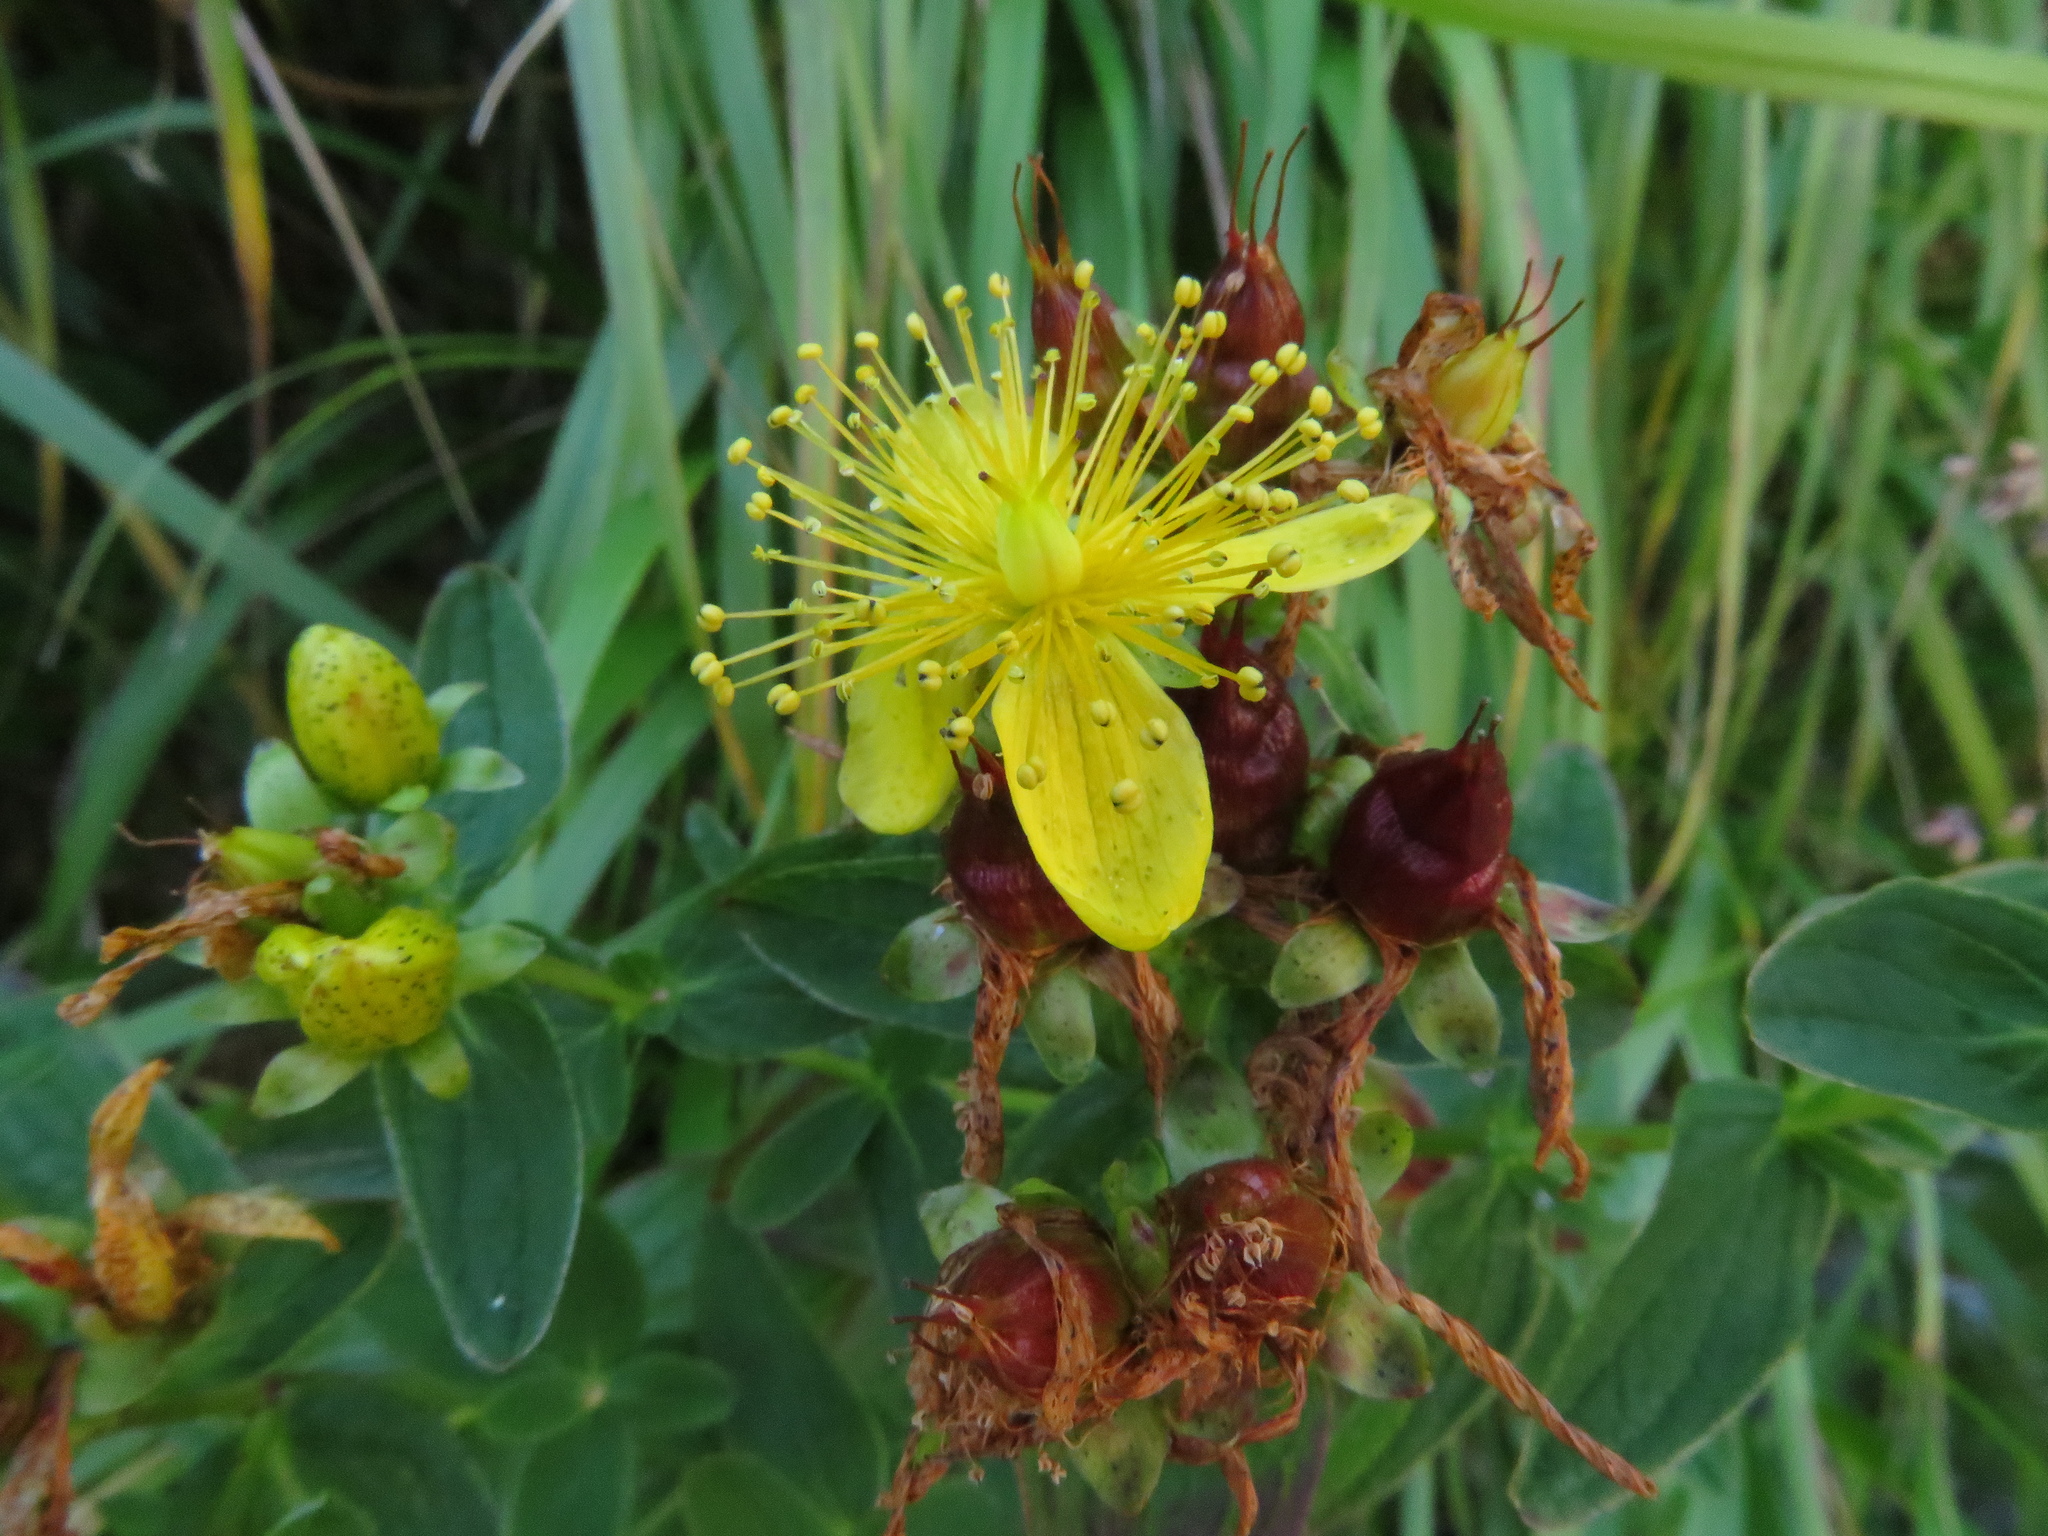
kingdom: Plantae
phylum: Tracheophyta
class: Magnoliopsida
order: Malpighiales
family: Hypericaceae
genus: Hypericum
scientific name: Hypericum maculatum
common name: Imperforate st. john's-wort
